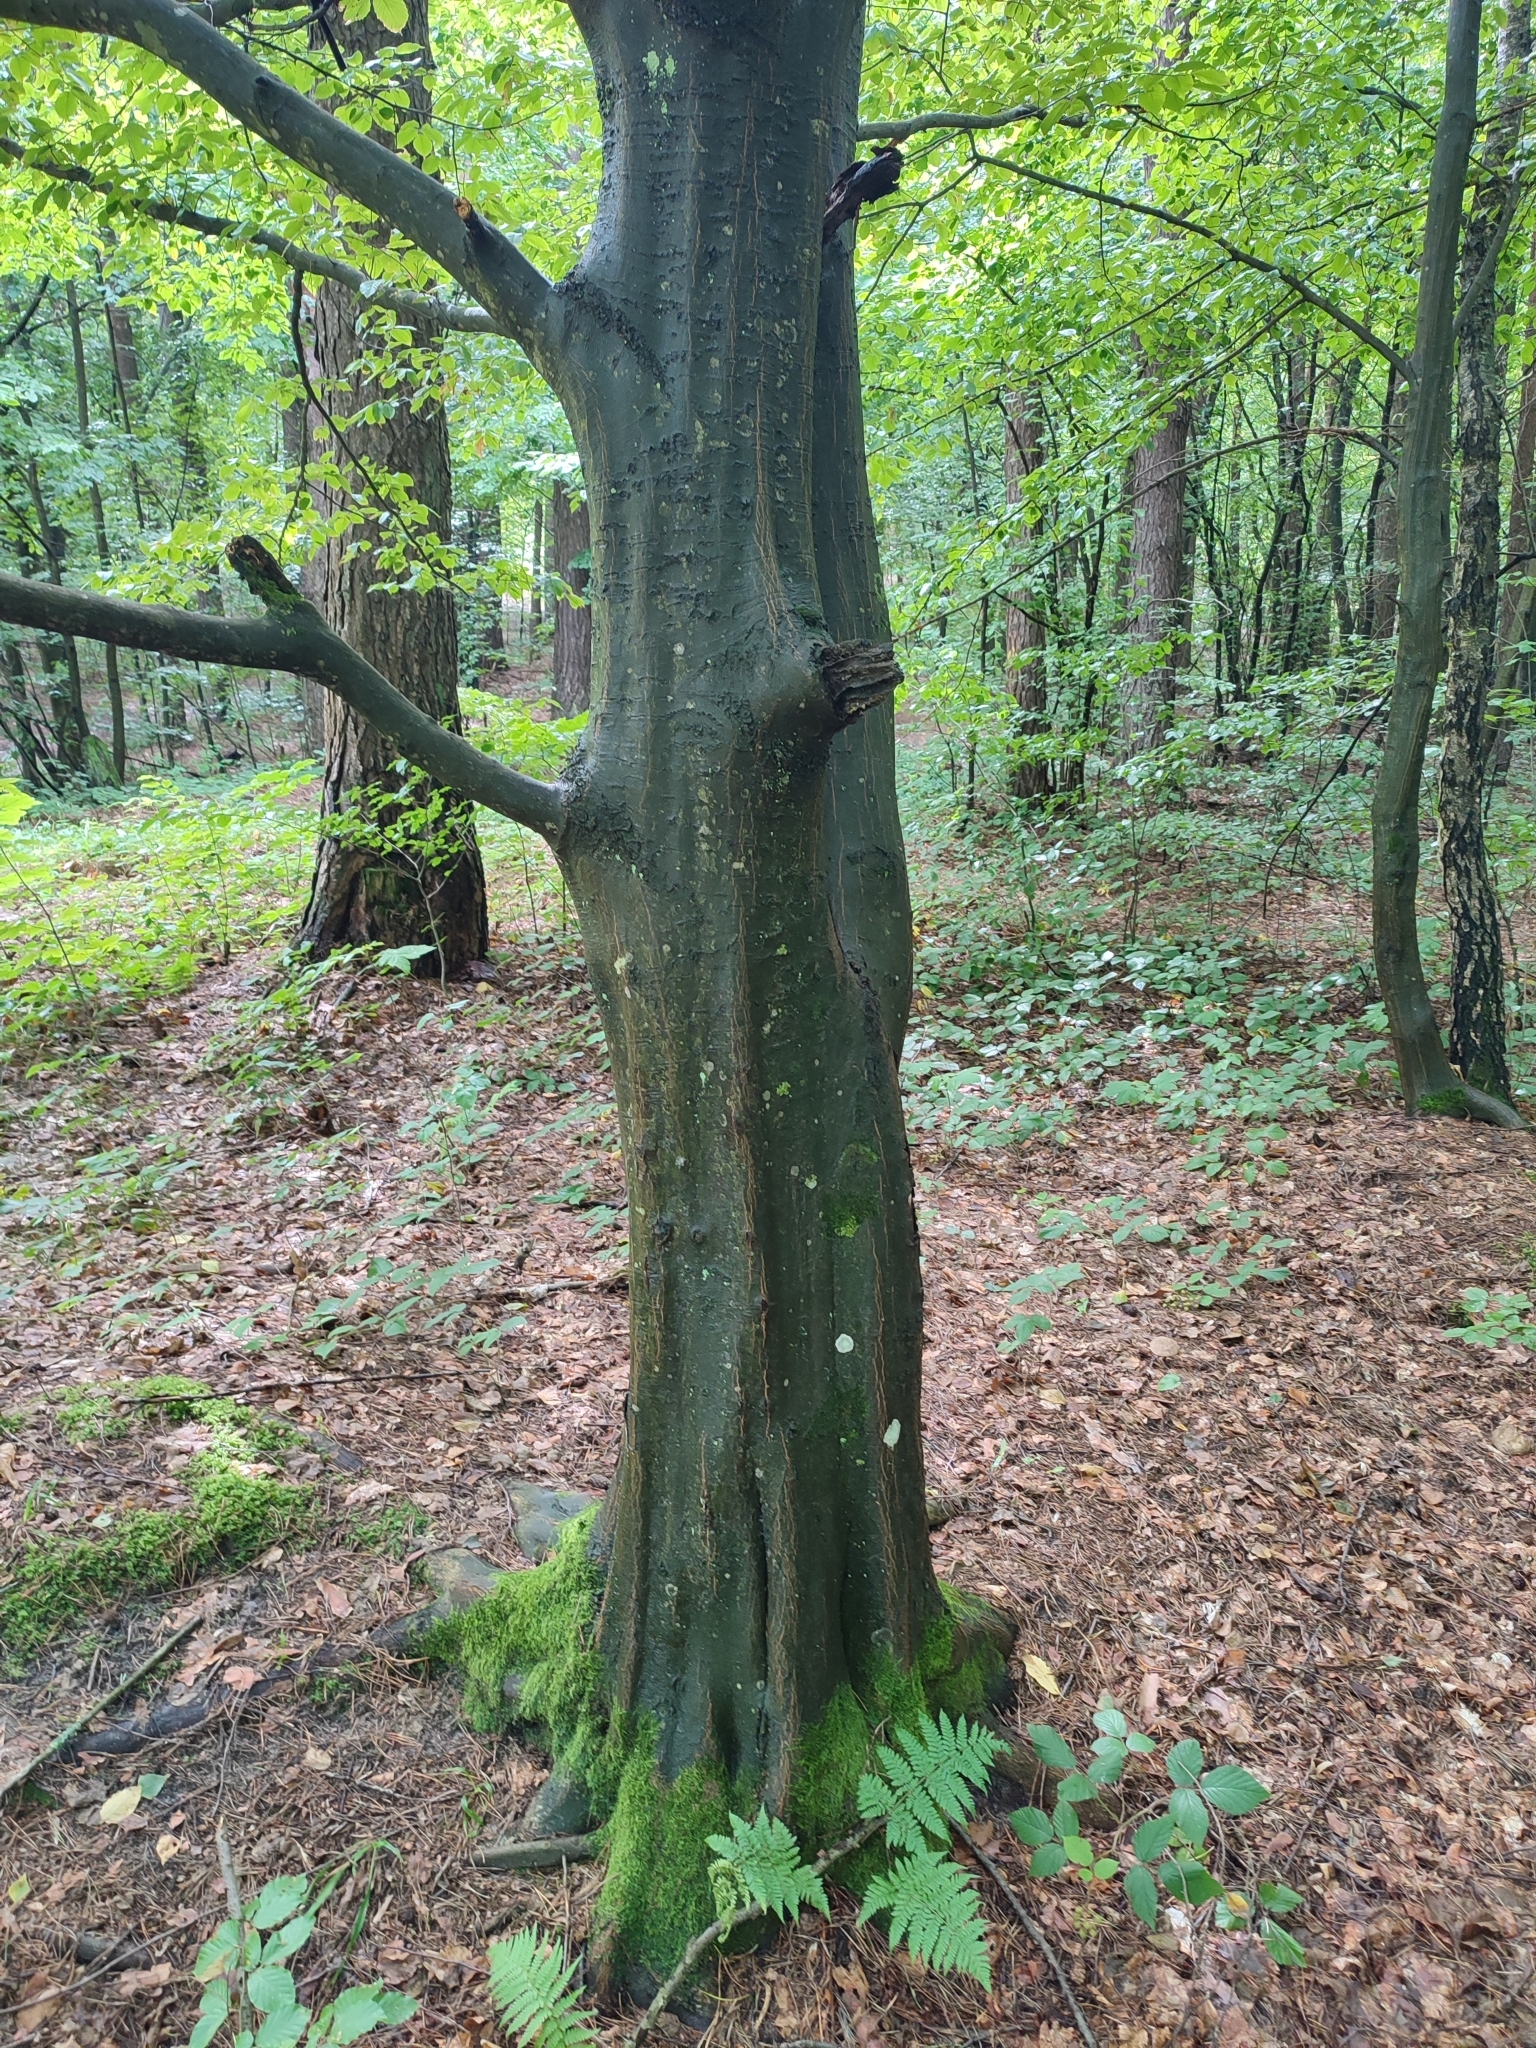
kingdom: Plantae
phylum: Tracheophyta
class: Magnoliopsida
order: Fagales
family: Fagaceae
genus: Fagus
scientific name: Fagus sylvatica
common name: Beech
